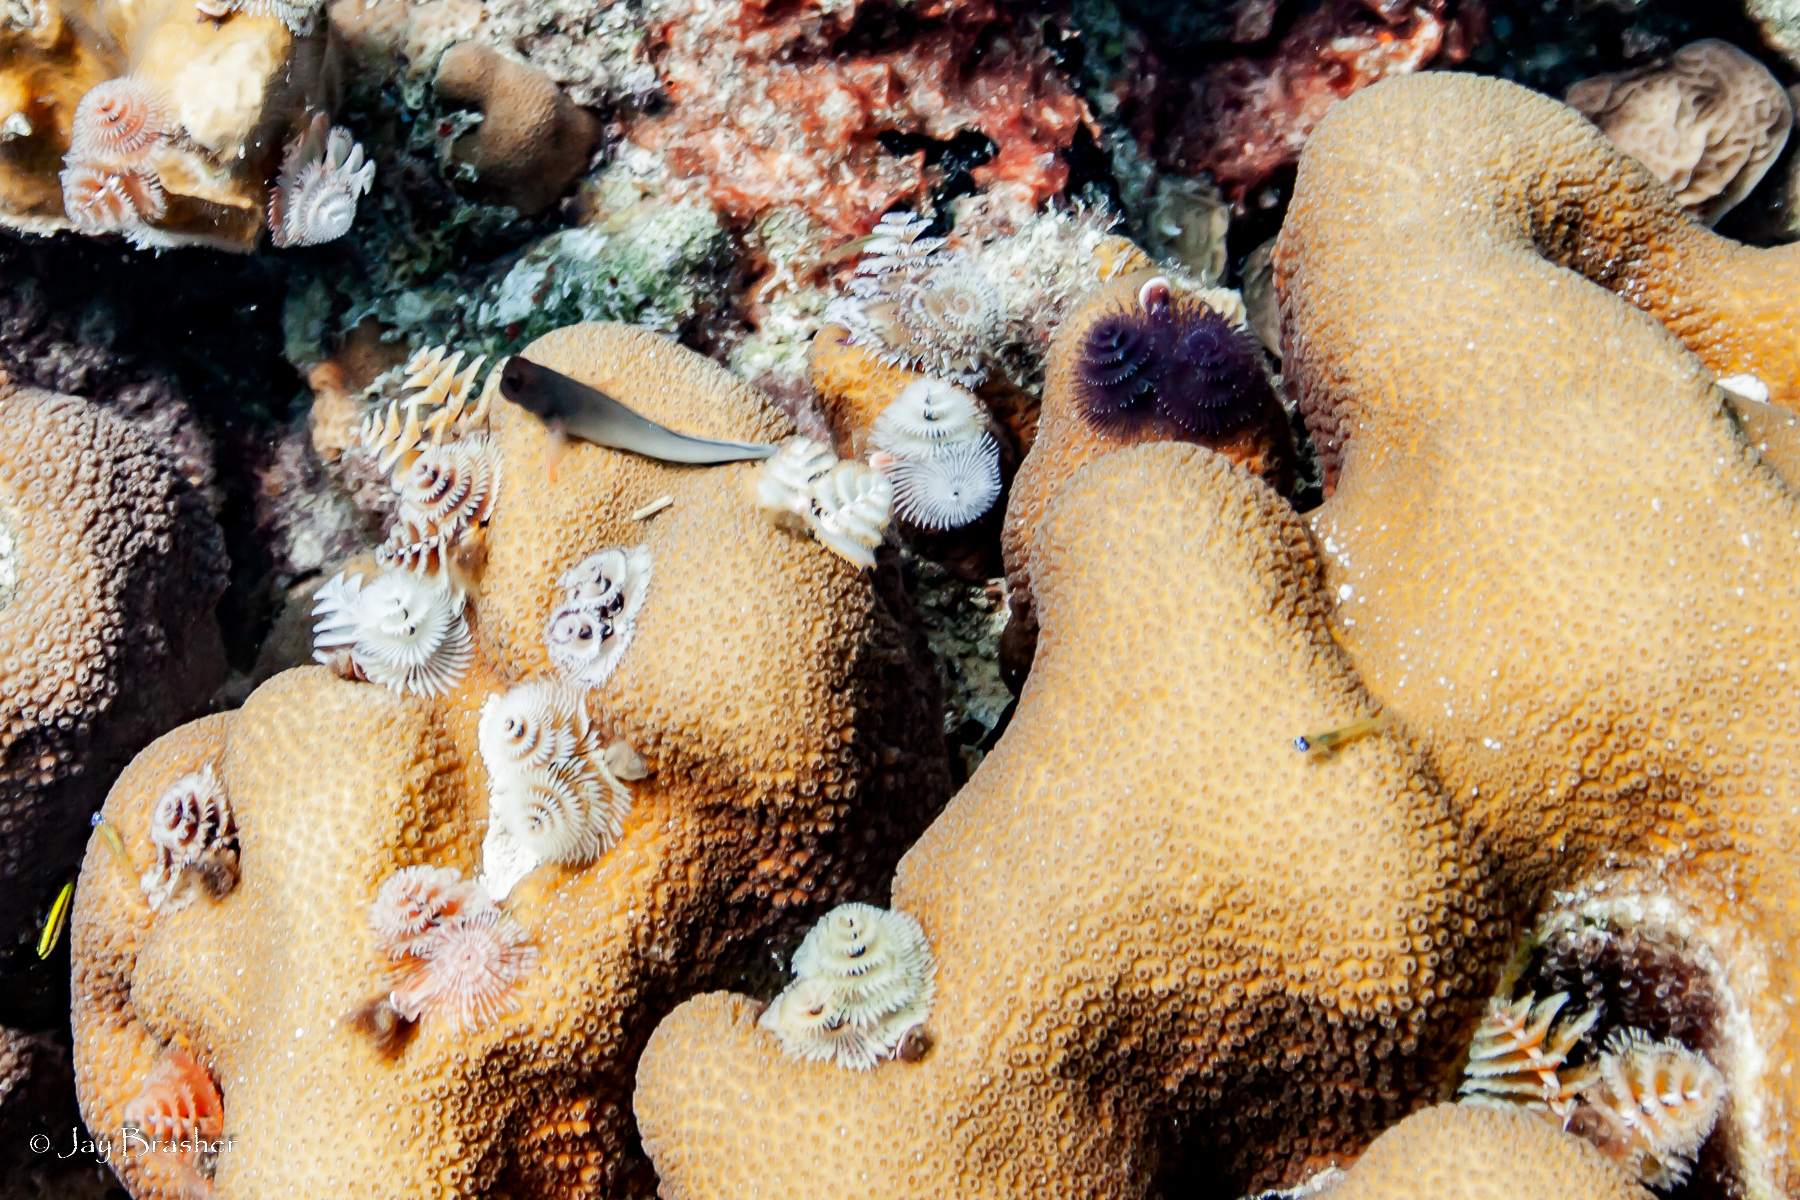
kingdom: Animalia
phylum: Cnidaria
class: Anthozoa
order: Scleractinia
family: Merulinidae
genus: Orbicella
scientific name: Orbicella annularis
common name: Boulder star coral
